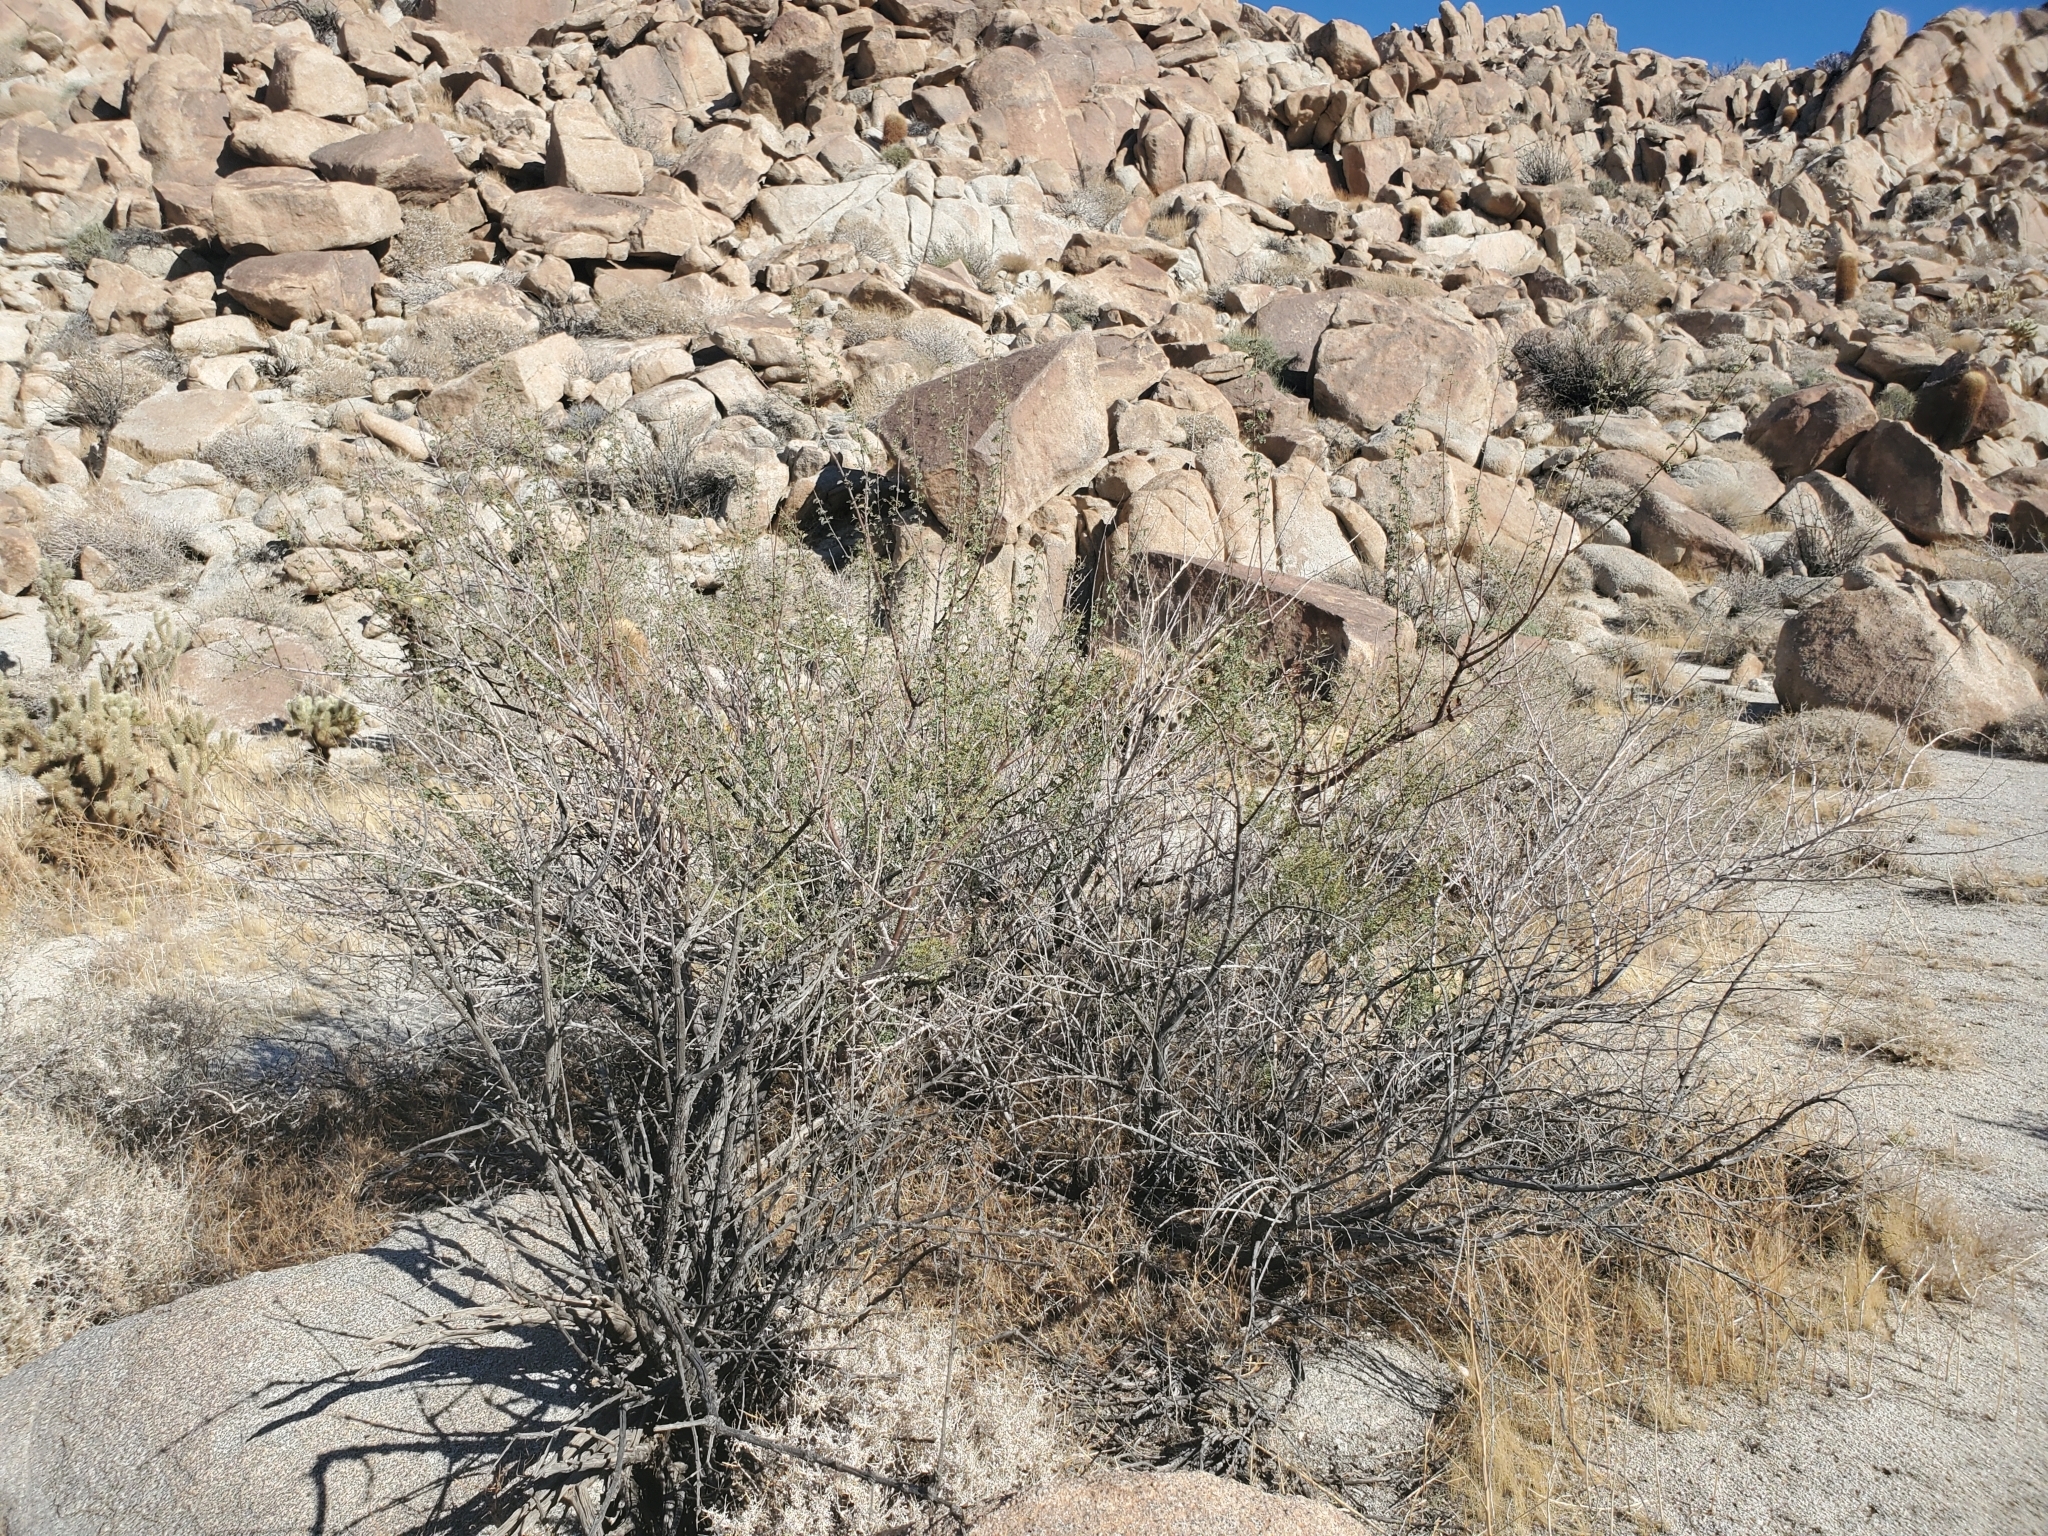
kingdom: Plantae
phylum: Tracheophyta
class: Magnoliopsida
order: Fabales
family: Fabaceae
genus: Senegalia
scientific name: Senegalia greggii
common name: Texas-mimosa
